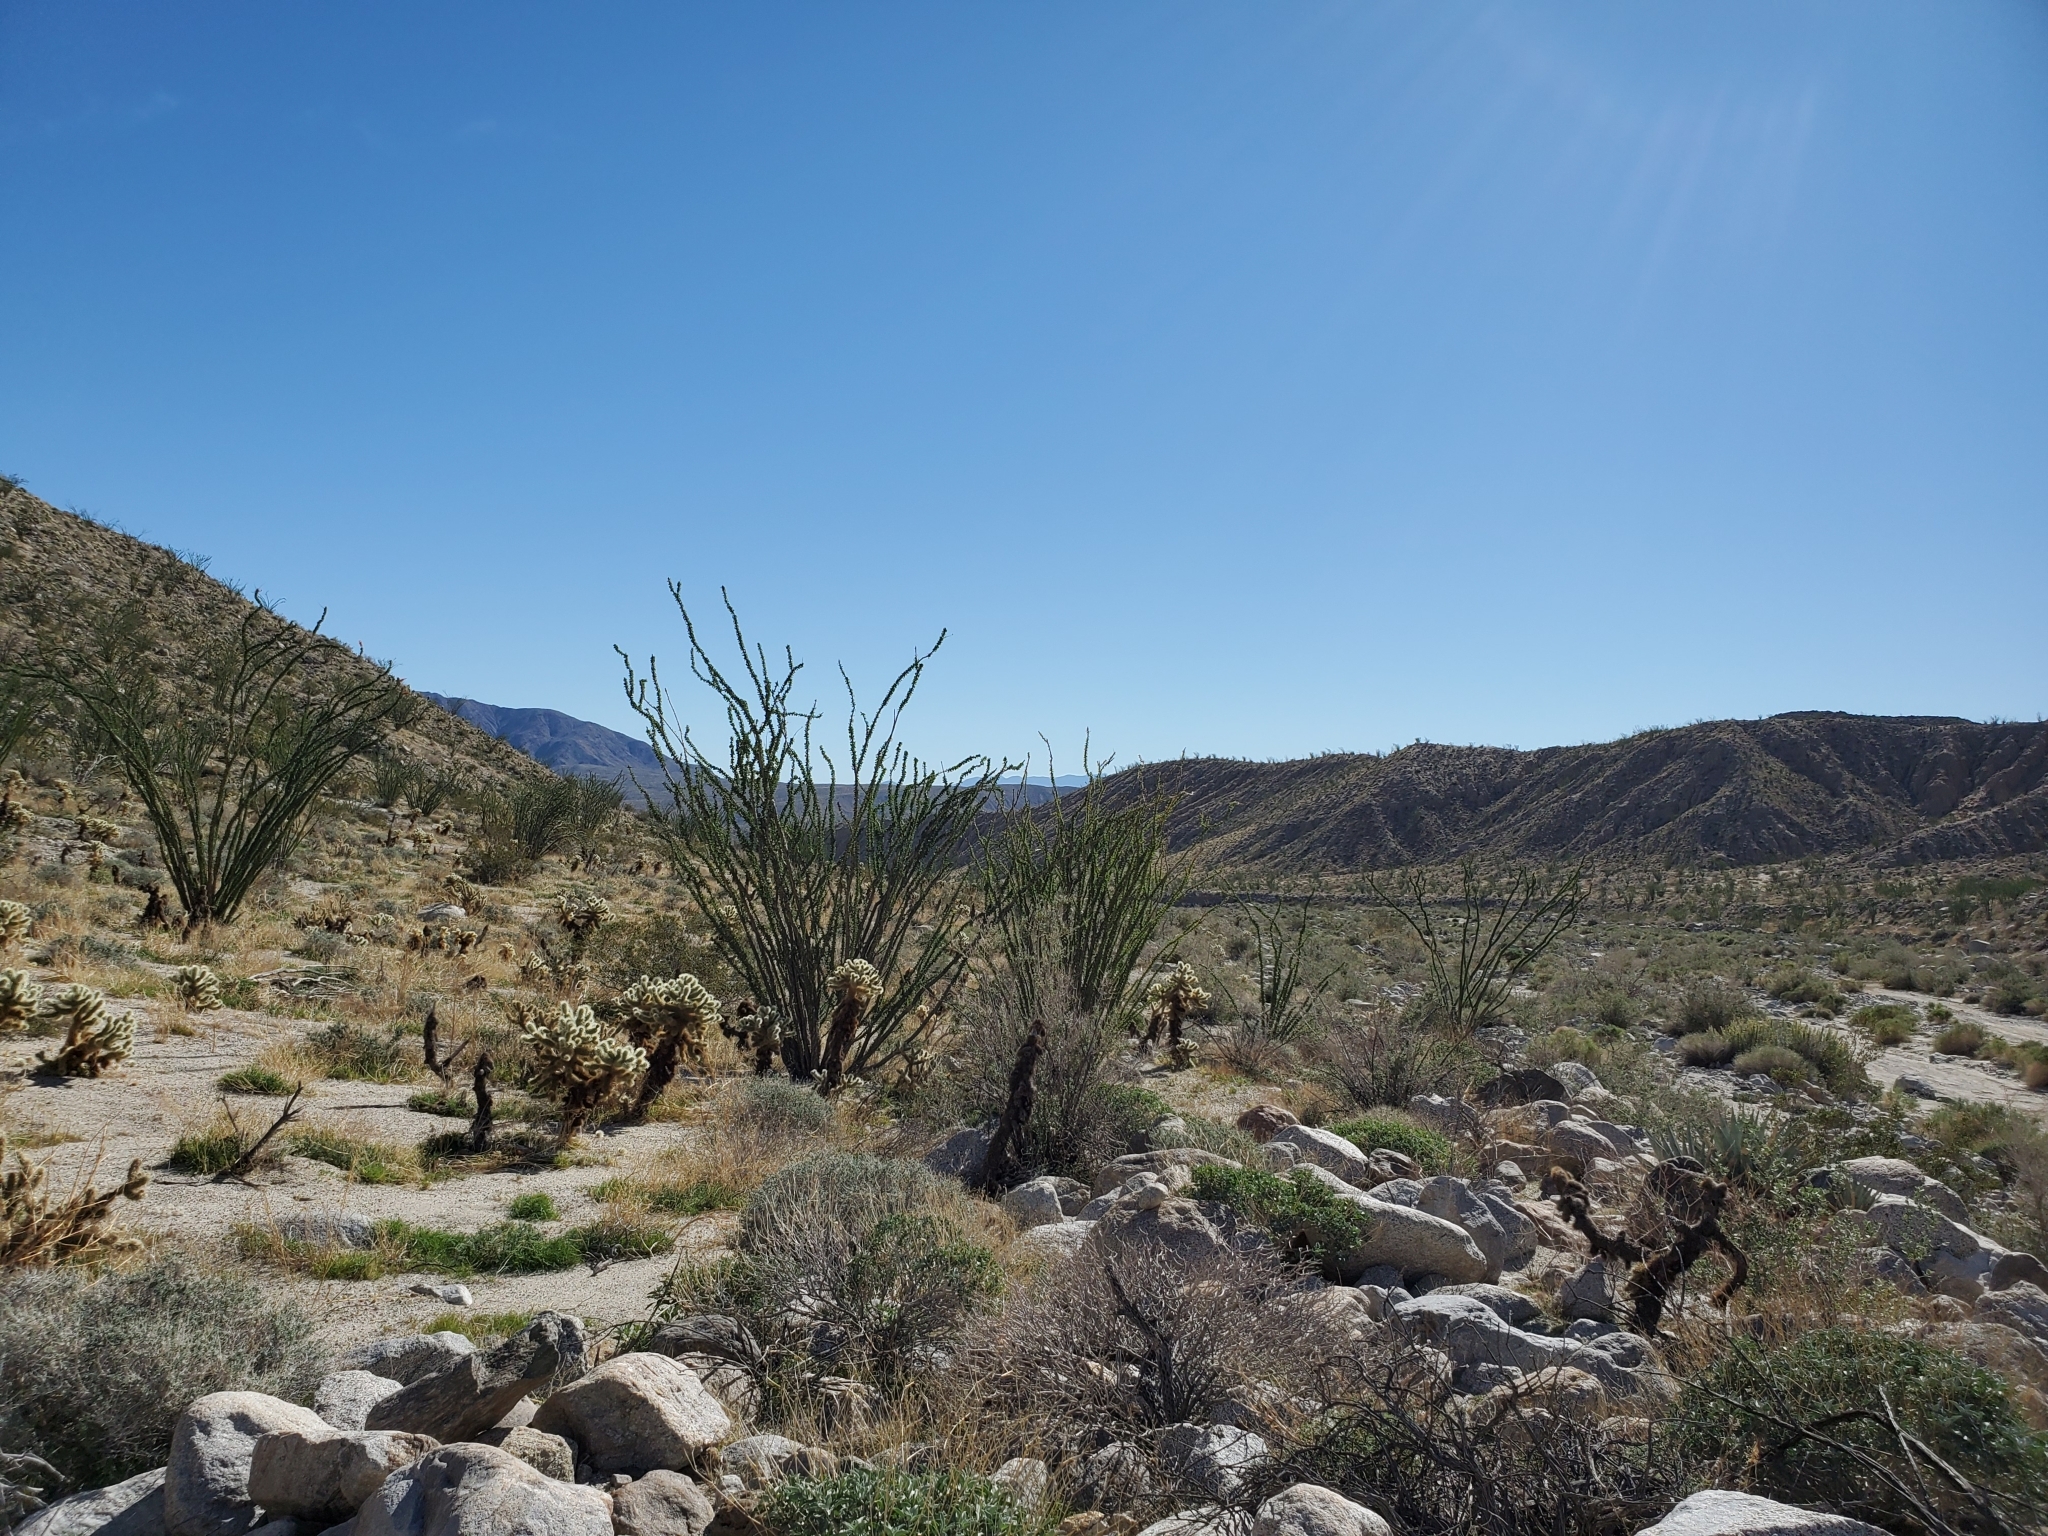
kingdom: Plantae
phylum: Tracheophyta
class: Magnoliopsida
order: Ericales
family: Fouquieriaceae
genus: Fouquieria
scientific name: Fouquieria splendens
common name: Vine-cactus
